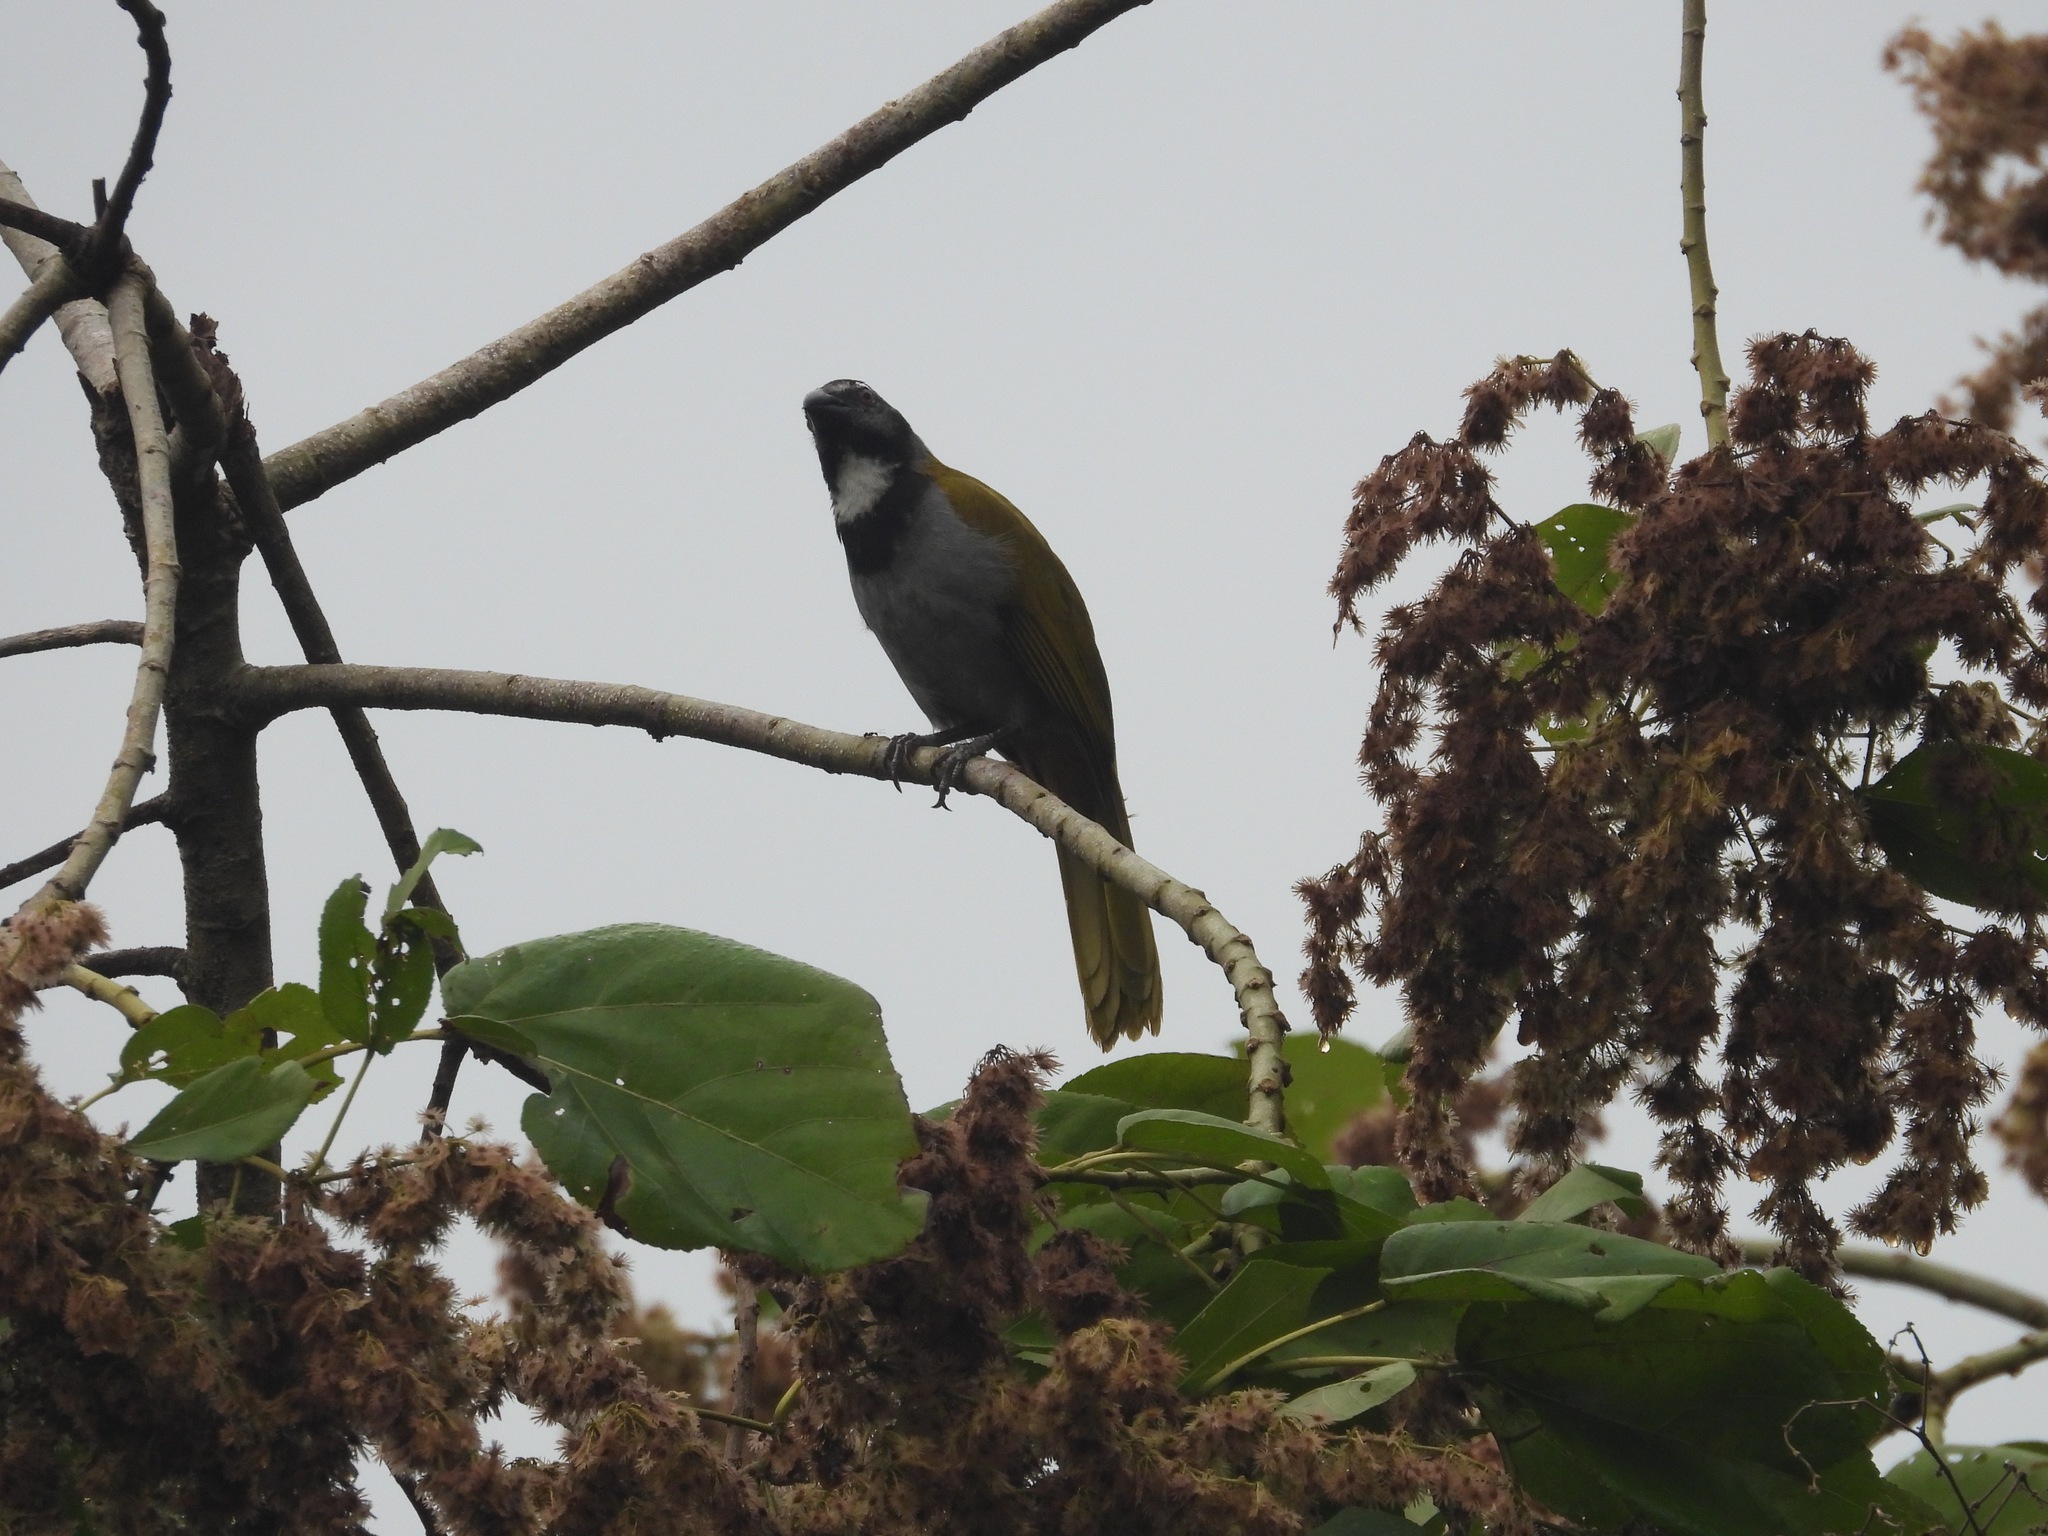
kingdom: Animalia
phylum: Chordata
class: Aves
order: Passeriformes
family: Thraupidae
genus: Saltator
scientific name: Saltator atriceps
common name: Black-headed saltator
